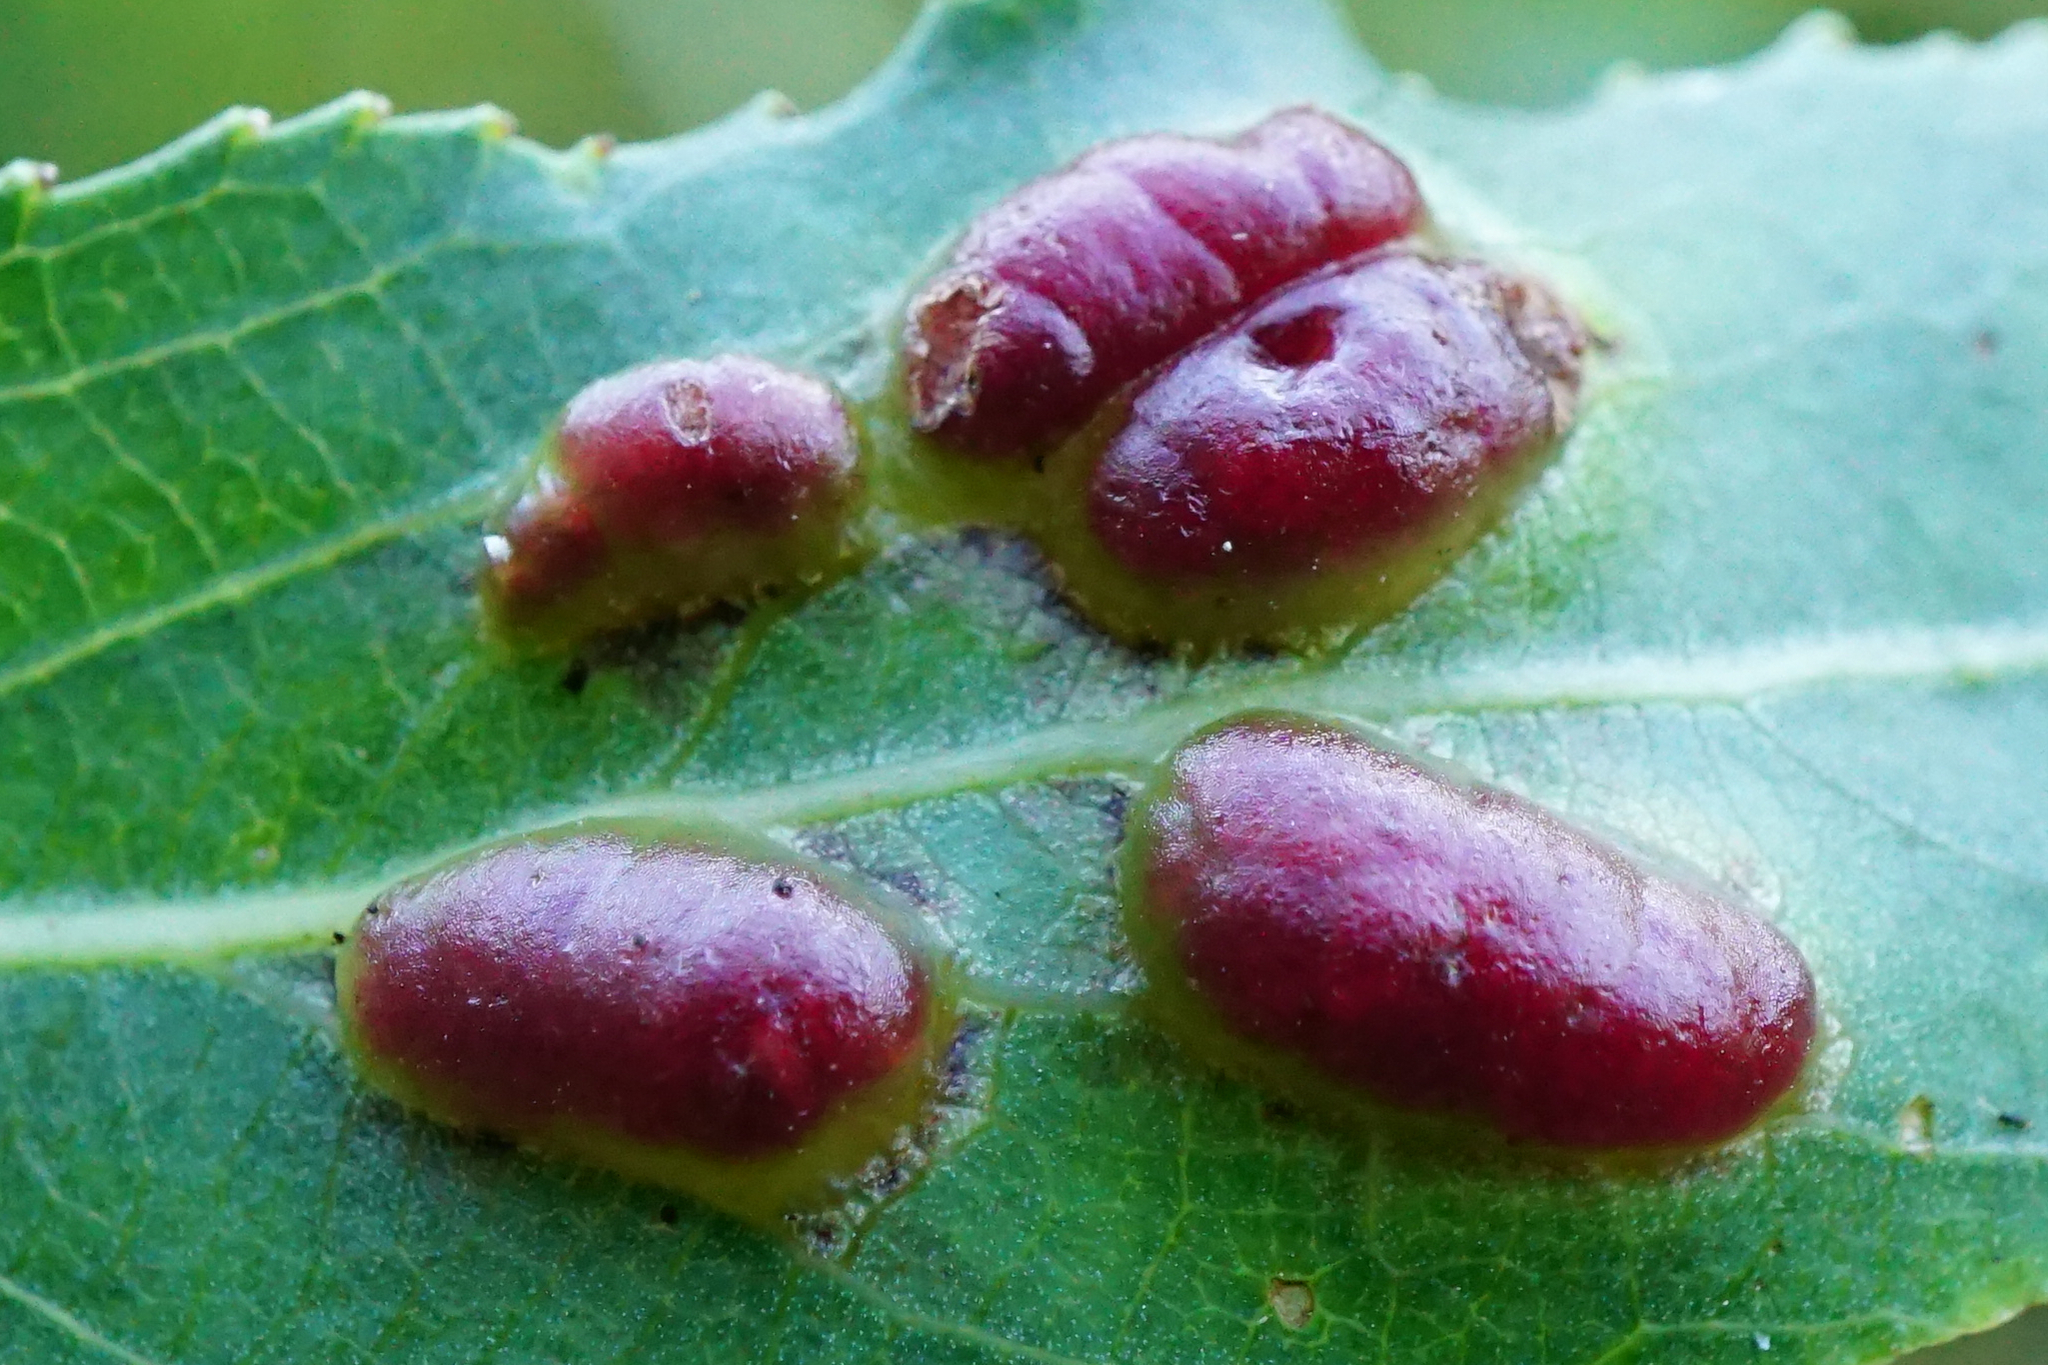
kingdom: Animalia
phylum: Arthropoda
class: Insecta
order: Hymenoptera
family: Tenthredinidae
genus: Pontania
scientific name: Pontania proxima
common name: Common sawfly
